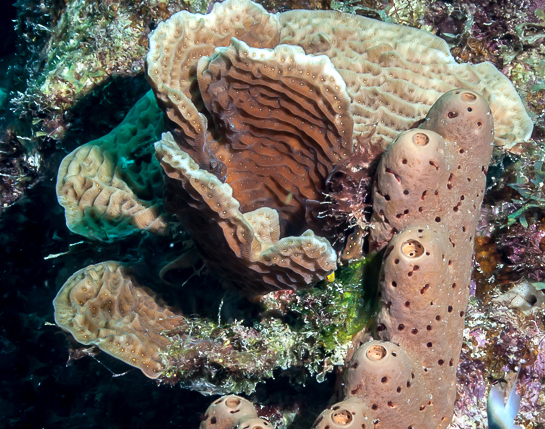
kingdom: Animalia
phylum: Cnidaria
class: Anthozoa
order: Scleractinia
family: Agariciidae
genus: Agaricia
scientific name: Agaricia agaricites
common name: Lettuce coral
